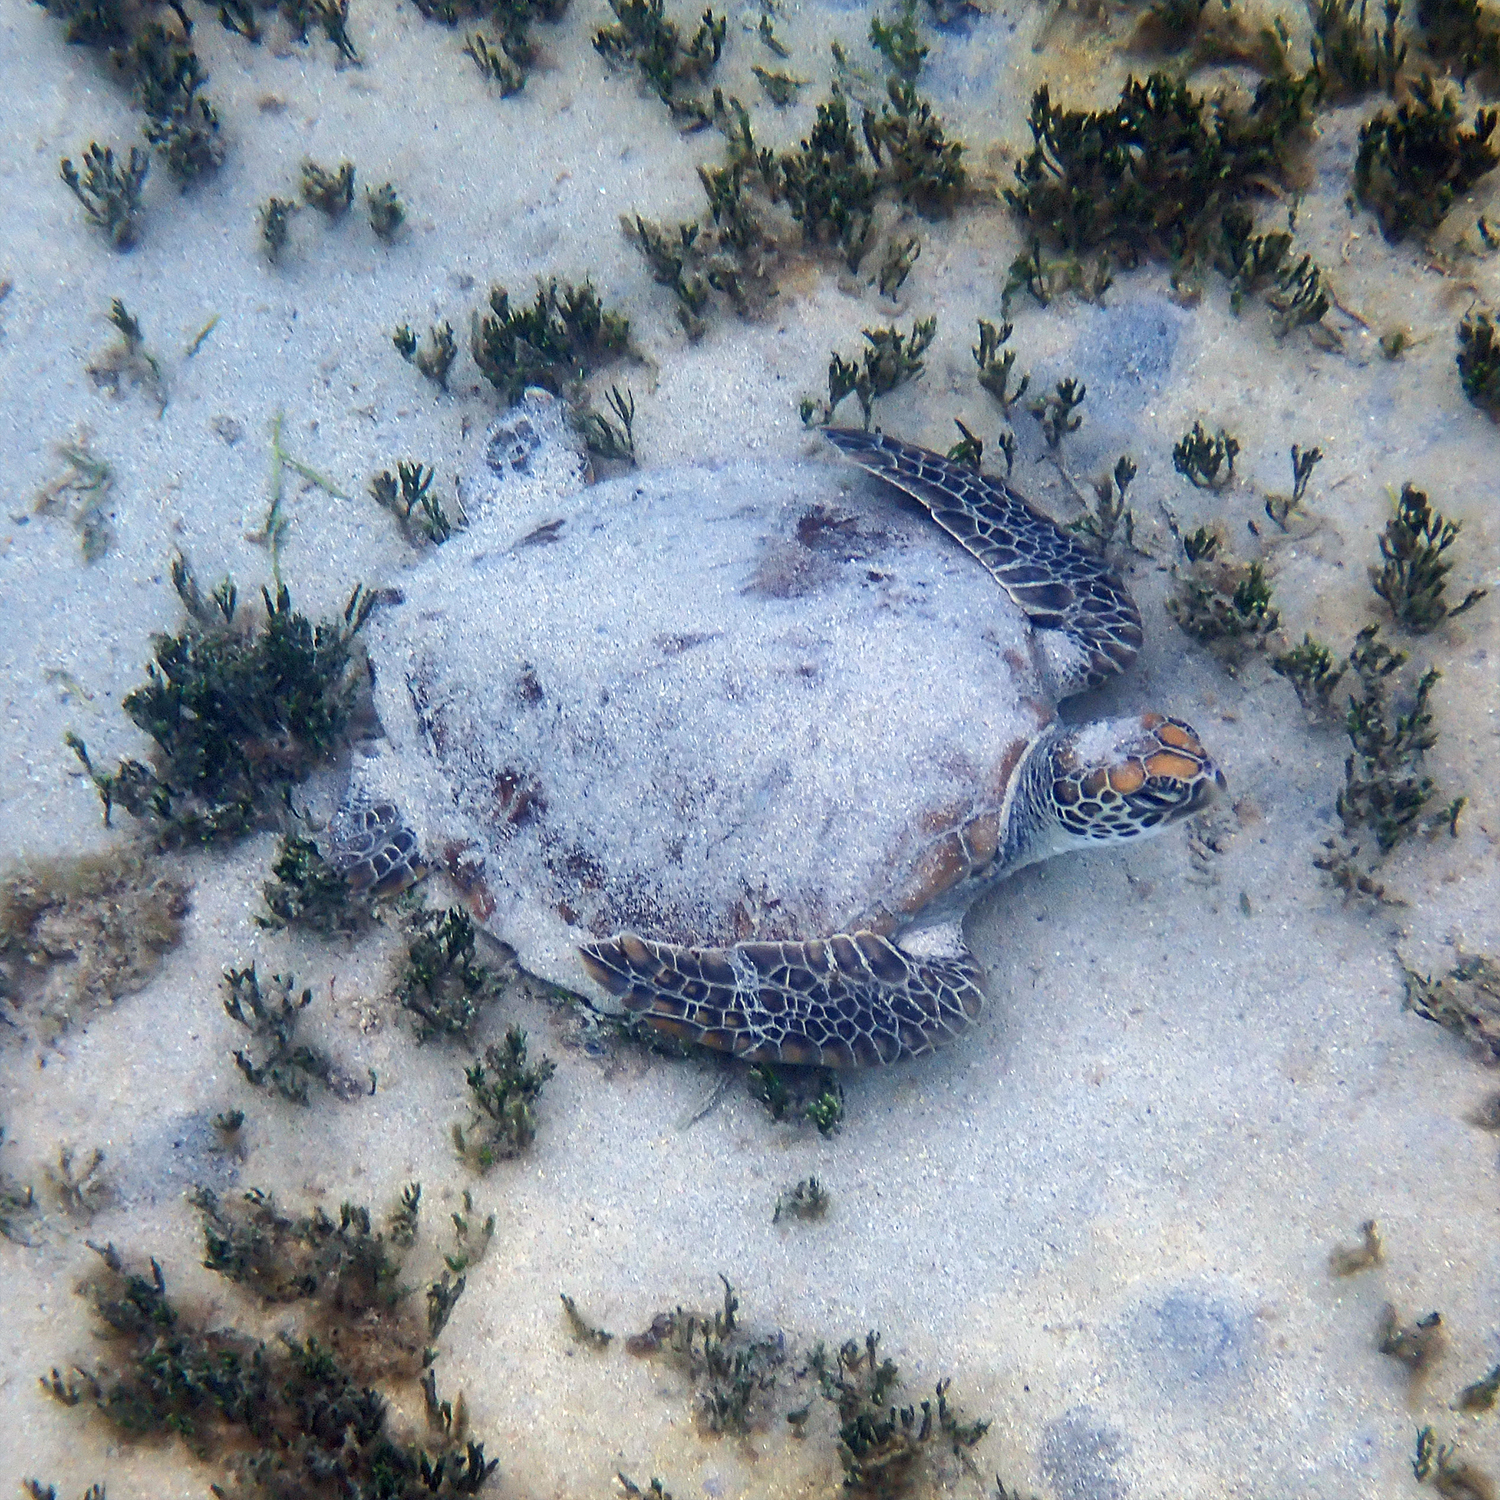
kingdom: Animalia
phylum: Chordata
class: Testudines
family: Cheloniidae
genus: Chelonia
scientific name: Chelonia mydas
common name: Green turtle
